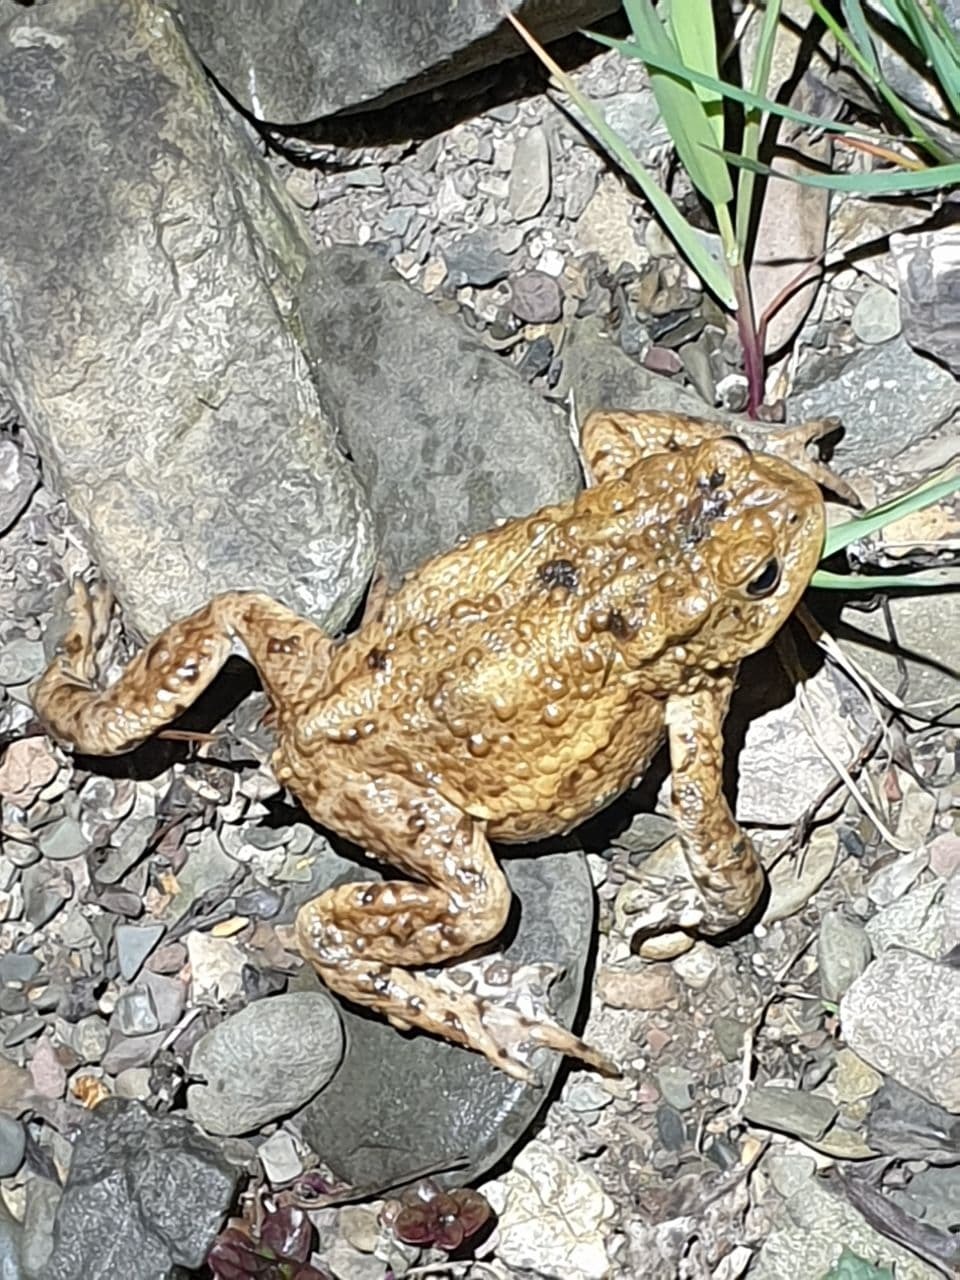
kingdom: Animalia
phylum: Chordata
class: Amphibia
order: Anura
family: Bufonidae
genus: Bufo
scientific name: Bufo bufo
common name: Common toad
